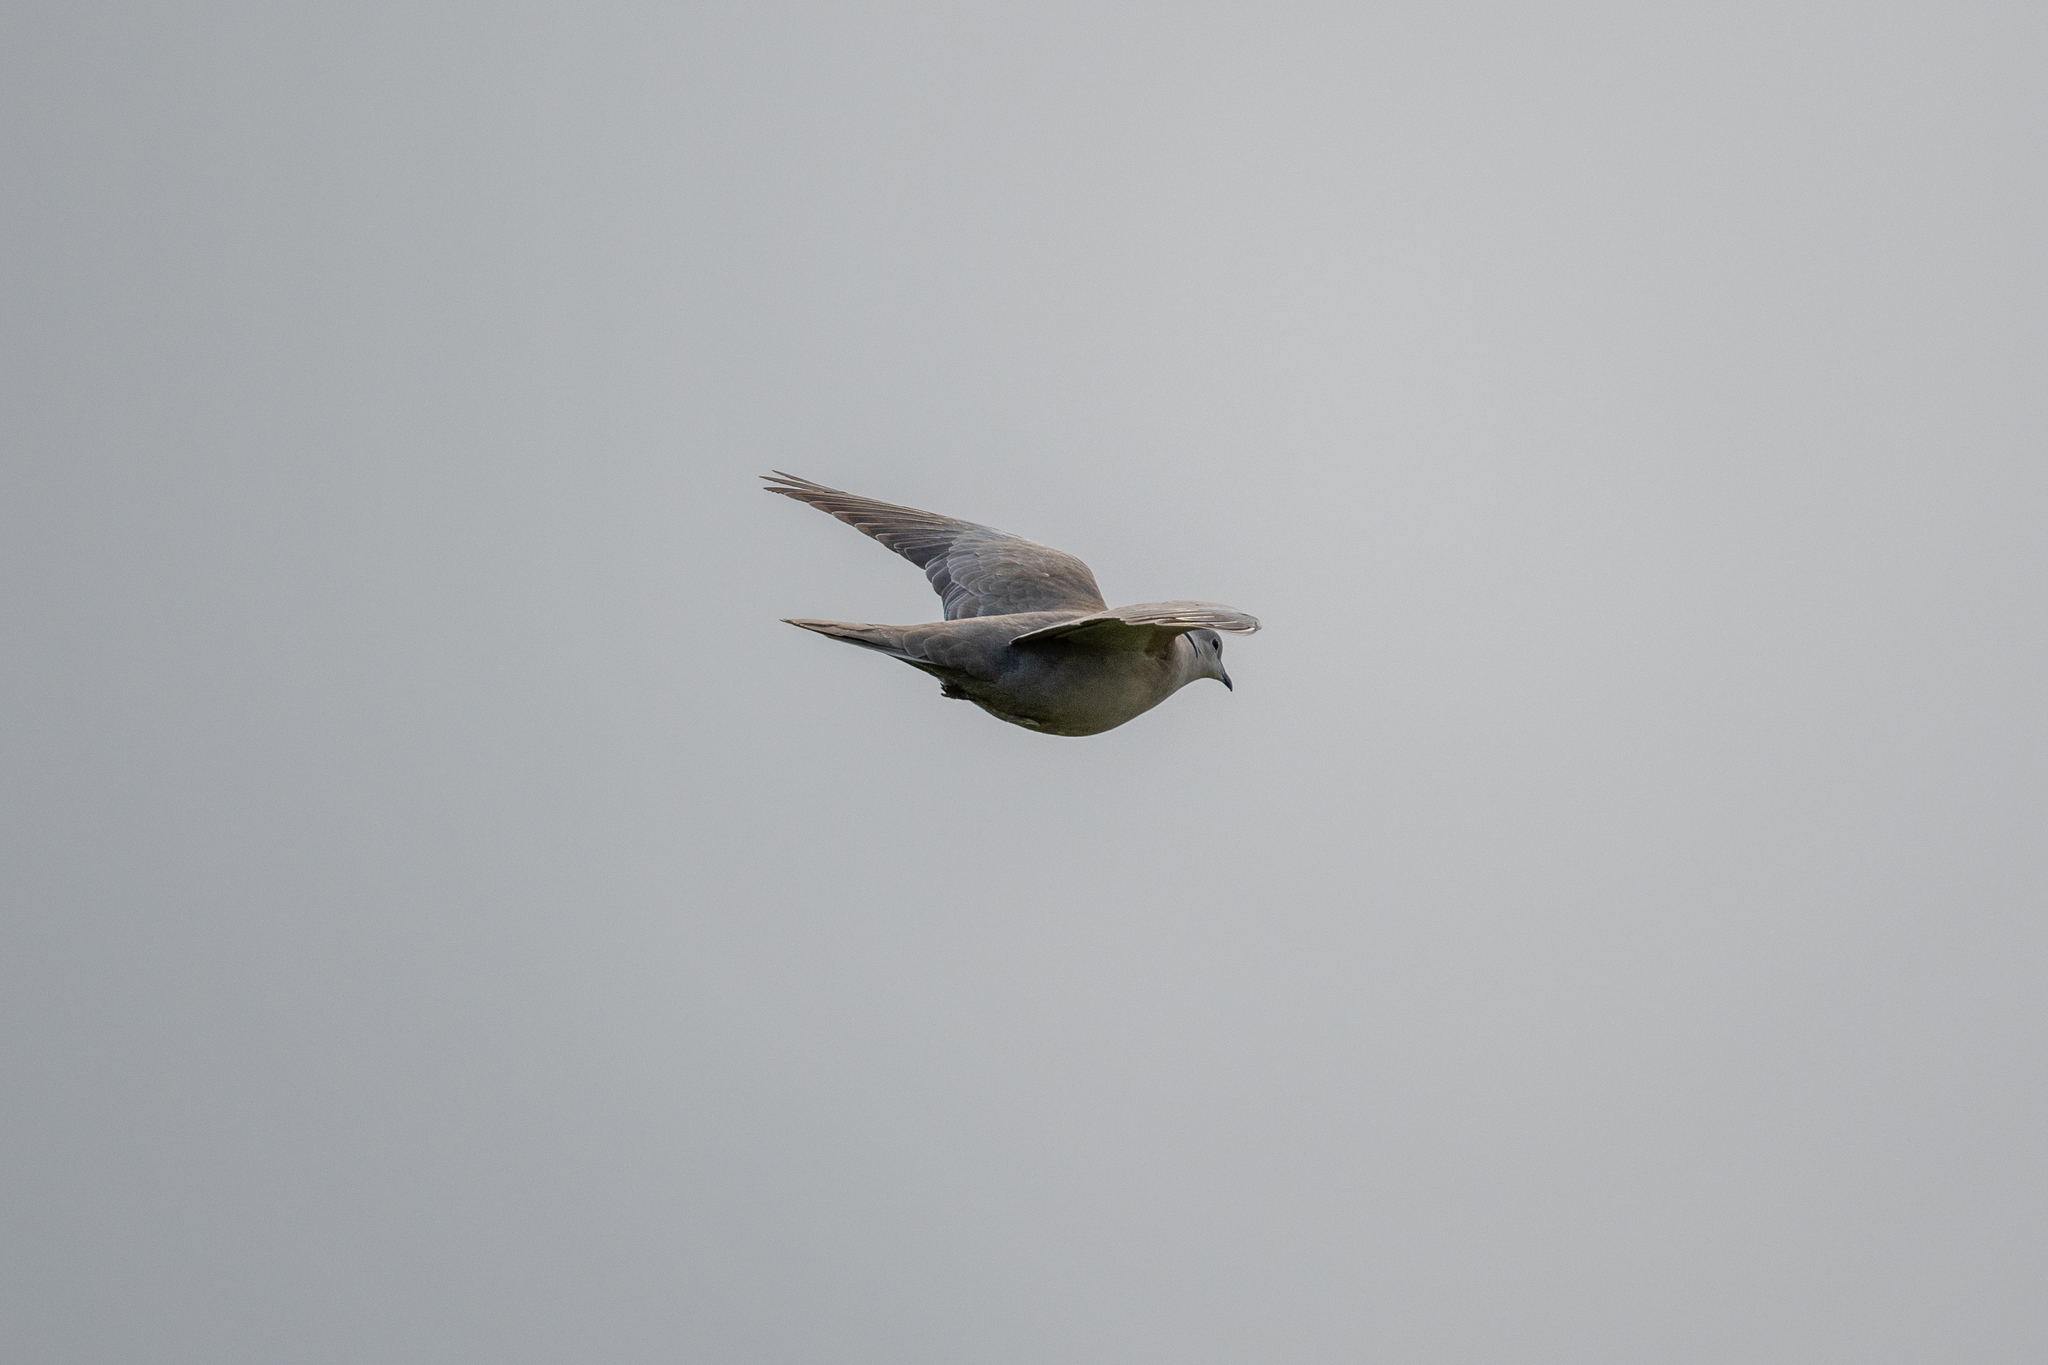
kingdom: Animalia
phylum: Chordata
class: Aves
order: Columbiformes
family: Columbidae
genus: Streptopelia
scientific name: Streptopelia decaocto
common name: Eurasian collared dove
